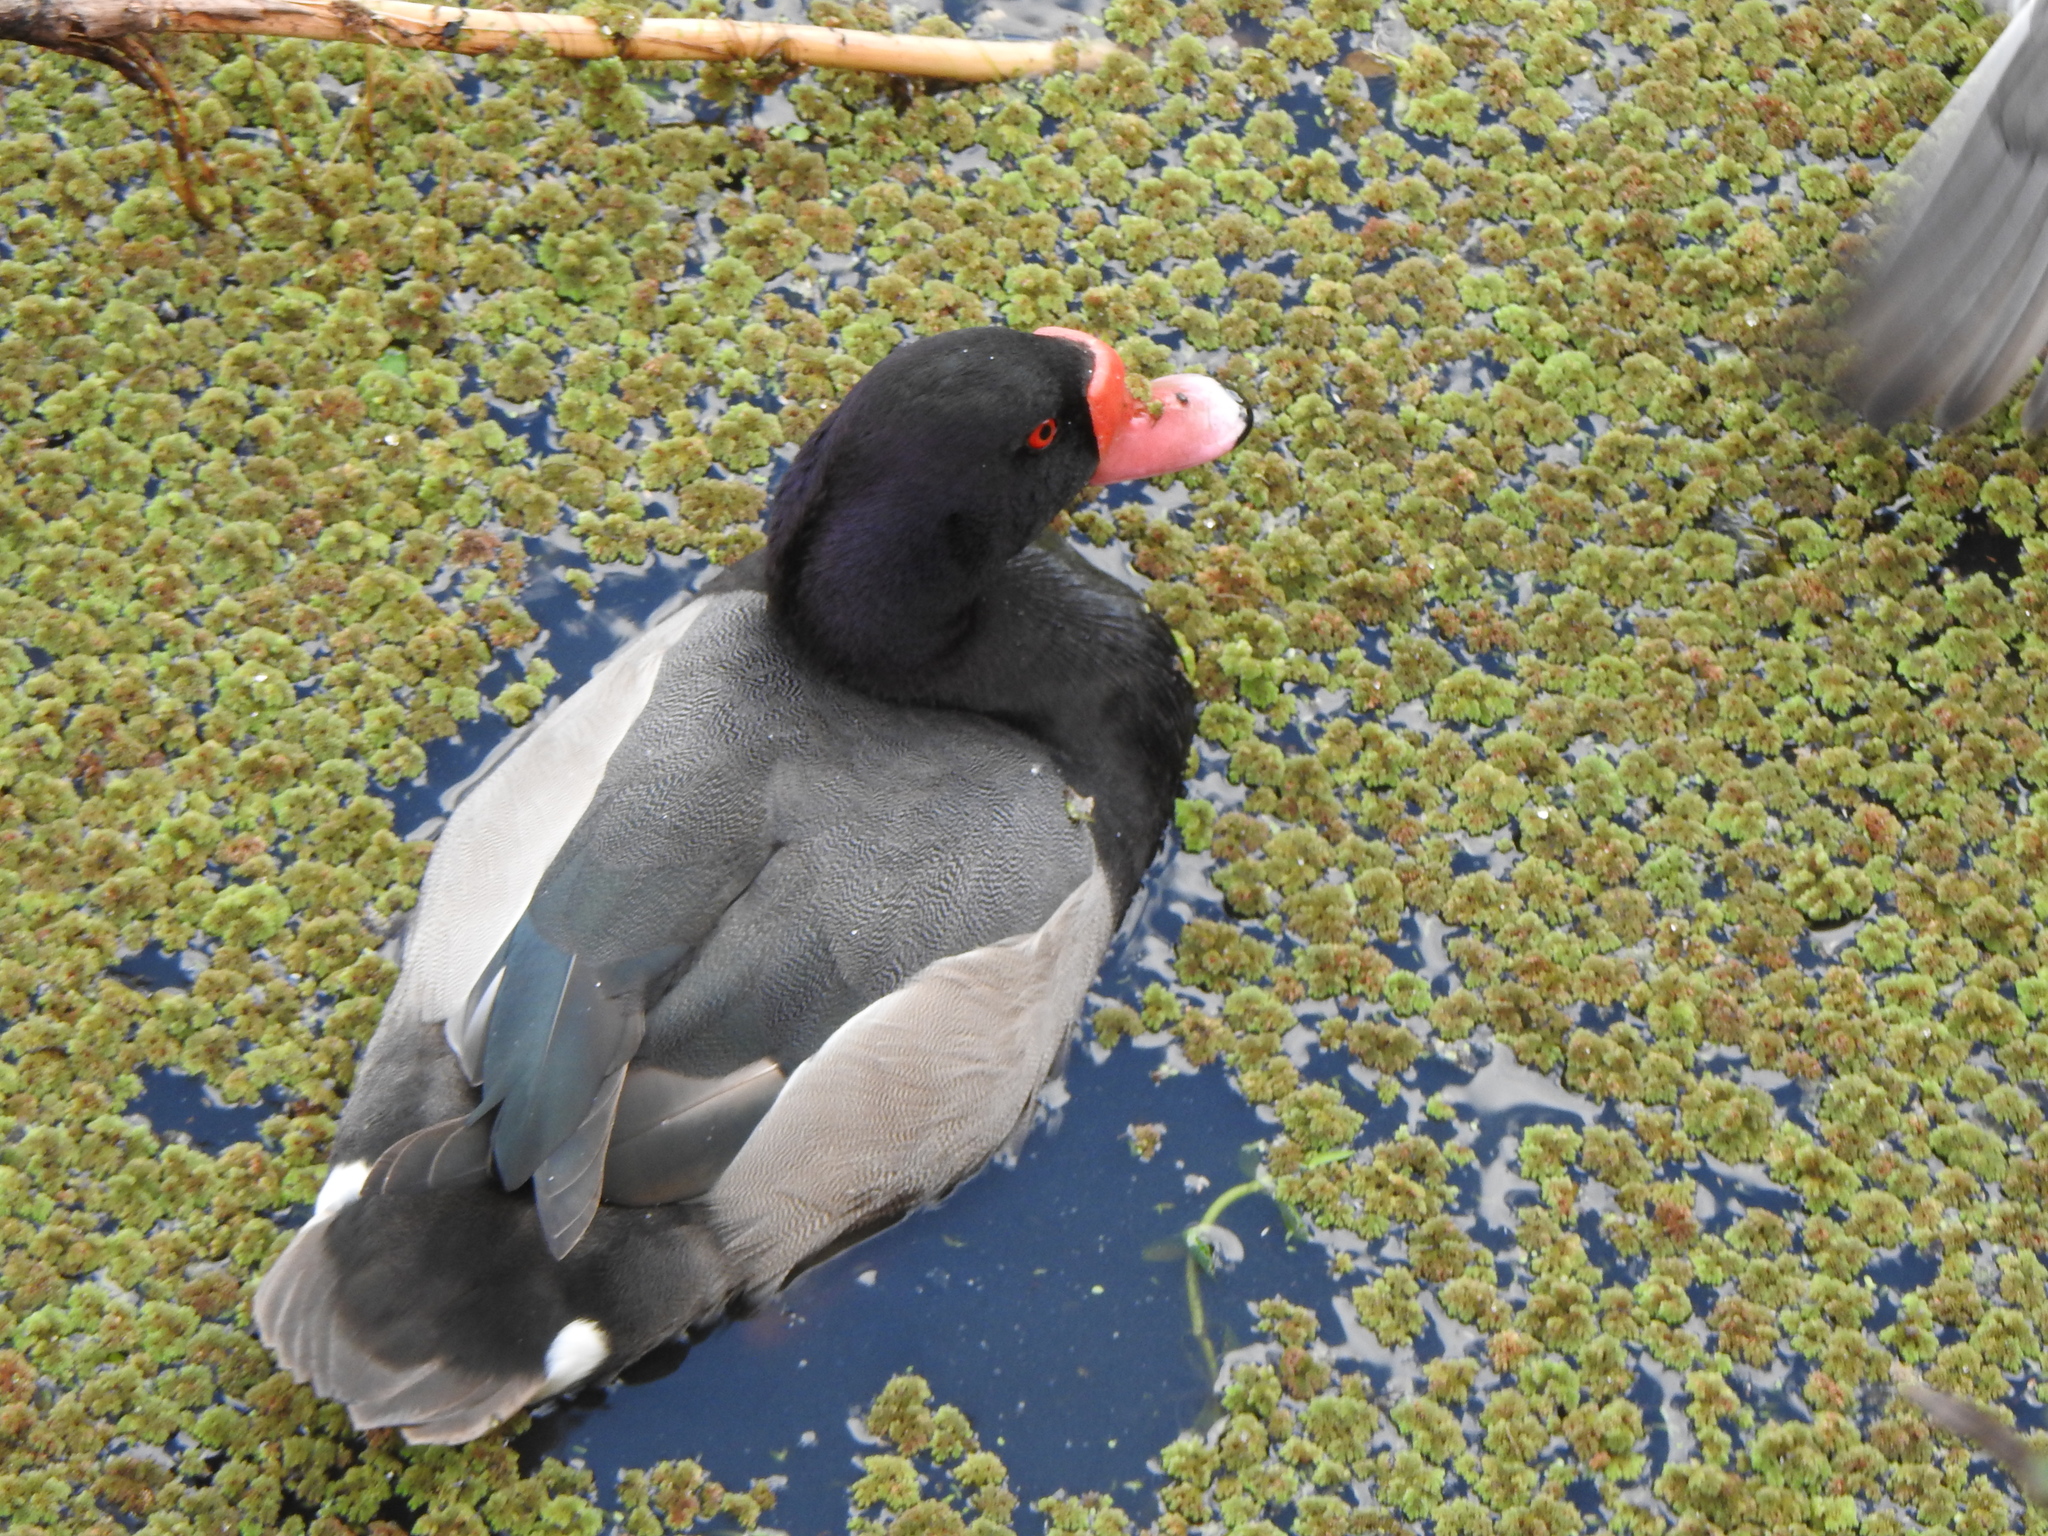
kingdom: Animalia
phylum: Chordata
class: Aves
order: Anseriformes
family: Anatidae
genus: Netta
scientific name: Netta peposaca
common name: Rosy-billed pochard
